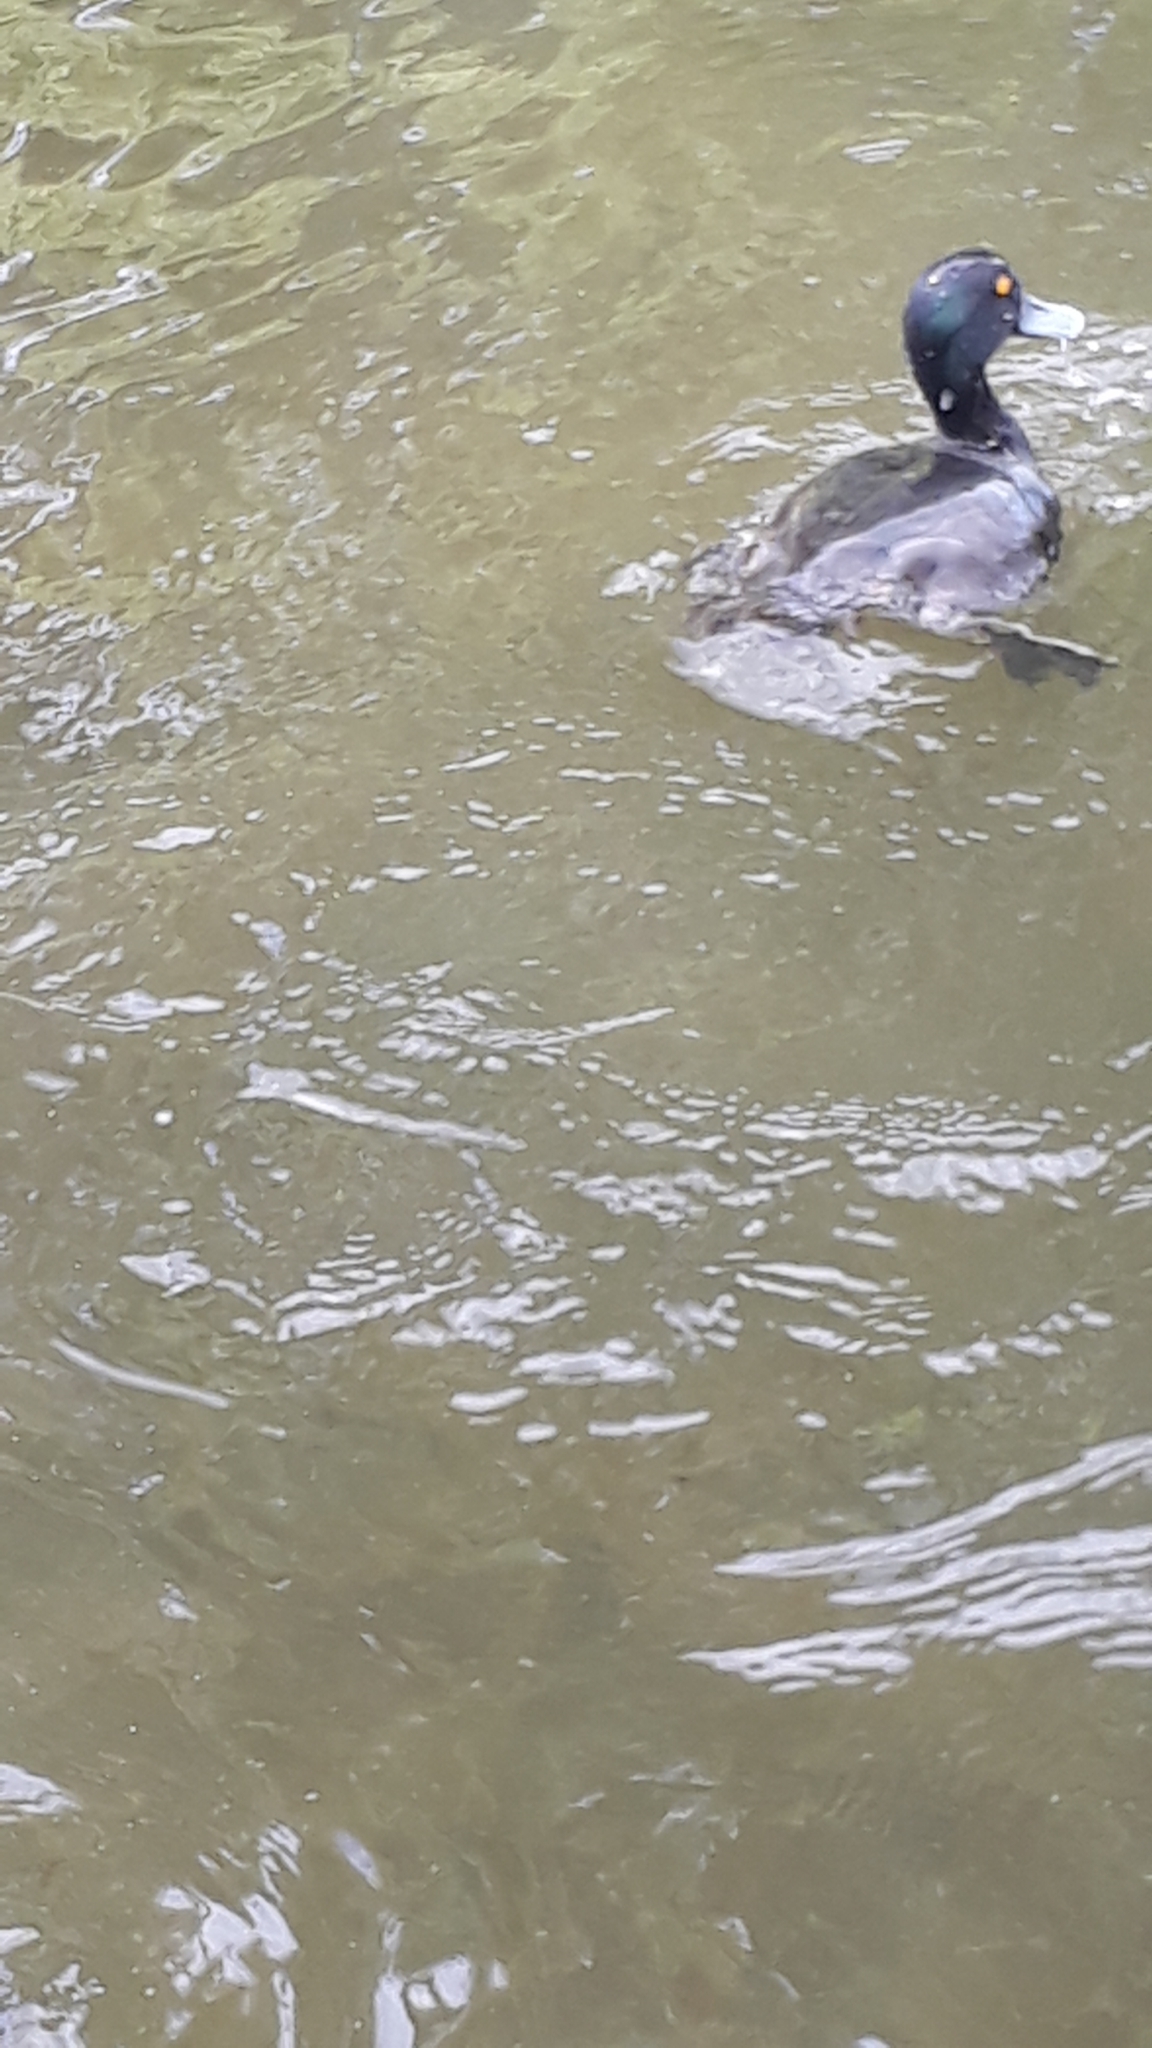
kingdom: Animalia
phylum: Chordata
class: Aves
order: Anseriformes
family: Anatidae
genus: Aythya
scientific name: Aythya novaeseelandiae
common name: New zealand scaup
